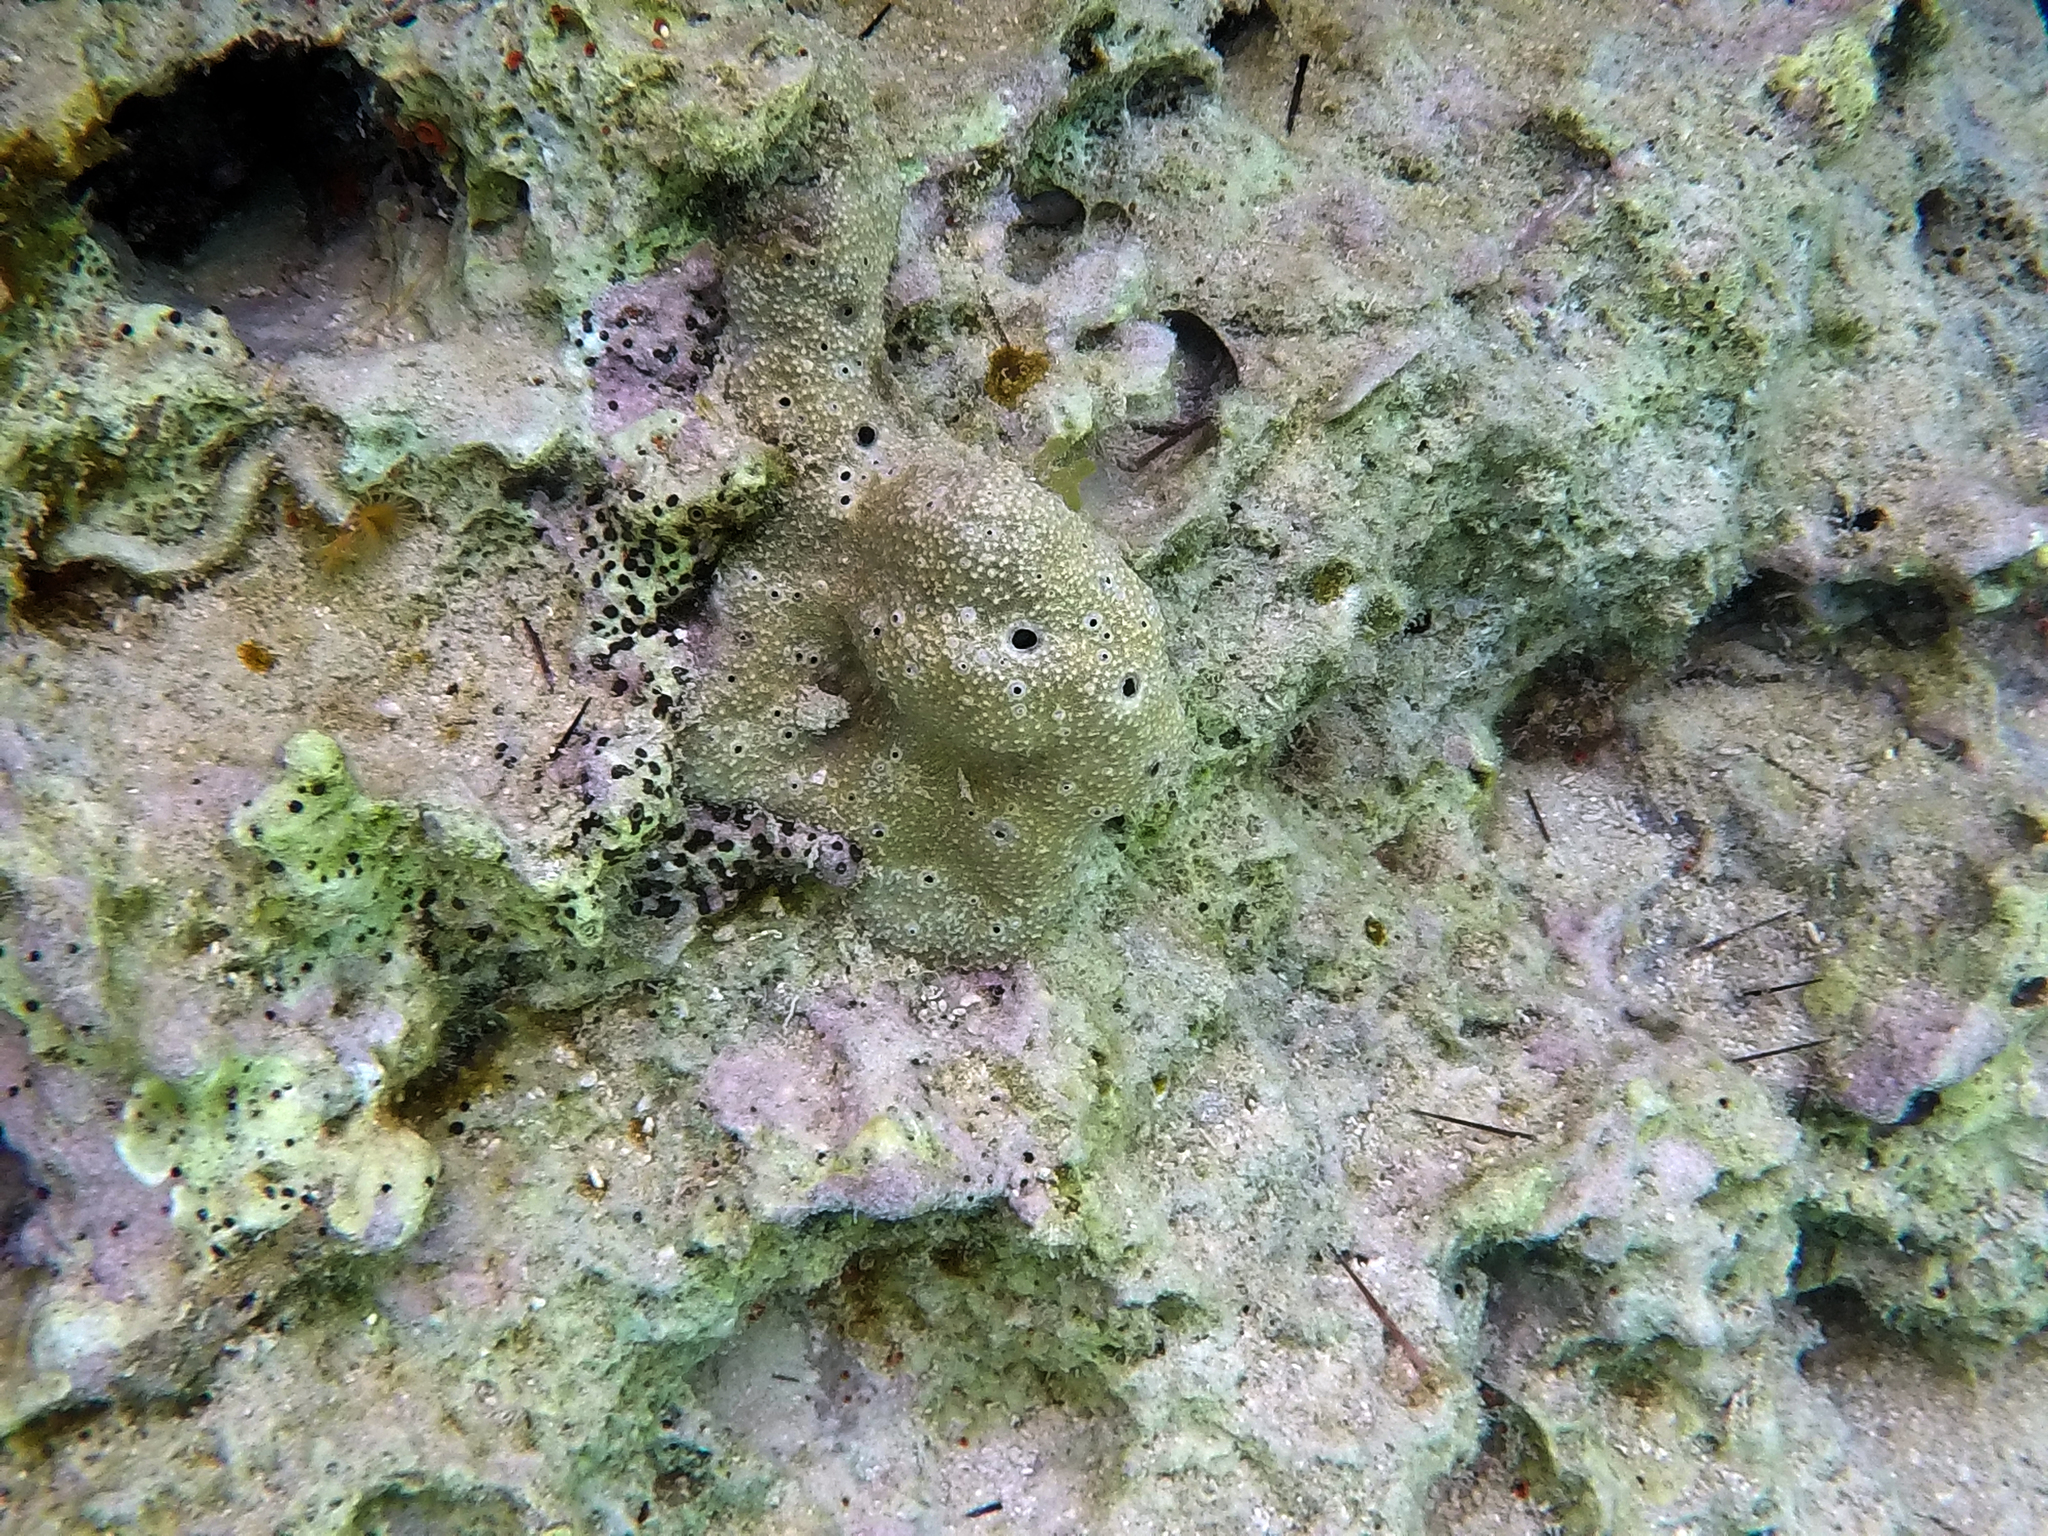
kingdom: Animalia
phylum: Porifera
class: Demospongiae
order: Dictyoceratida
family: Irciniidae
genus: Ircinia
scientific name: Ircinia variabilis
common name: Variable loggerhead sponge
